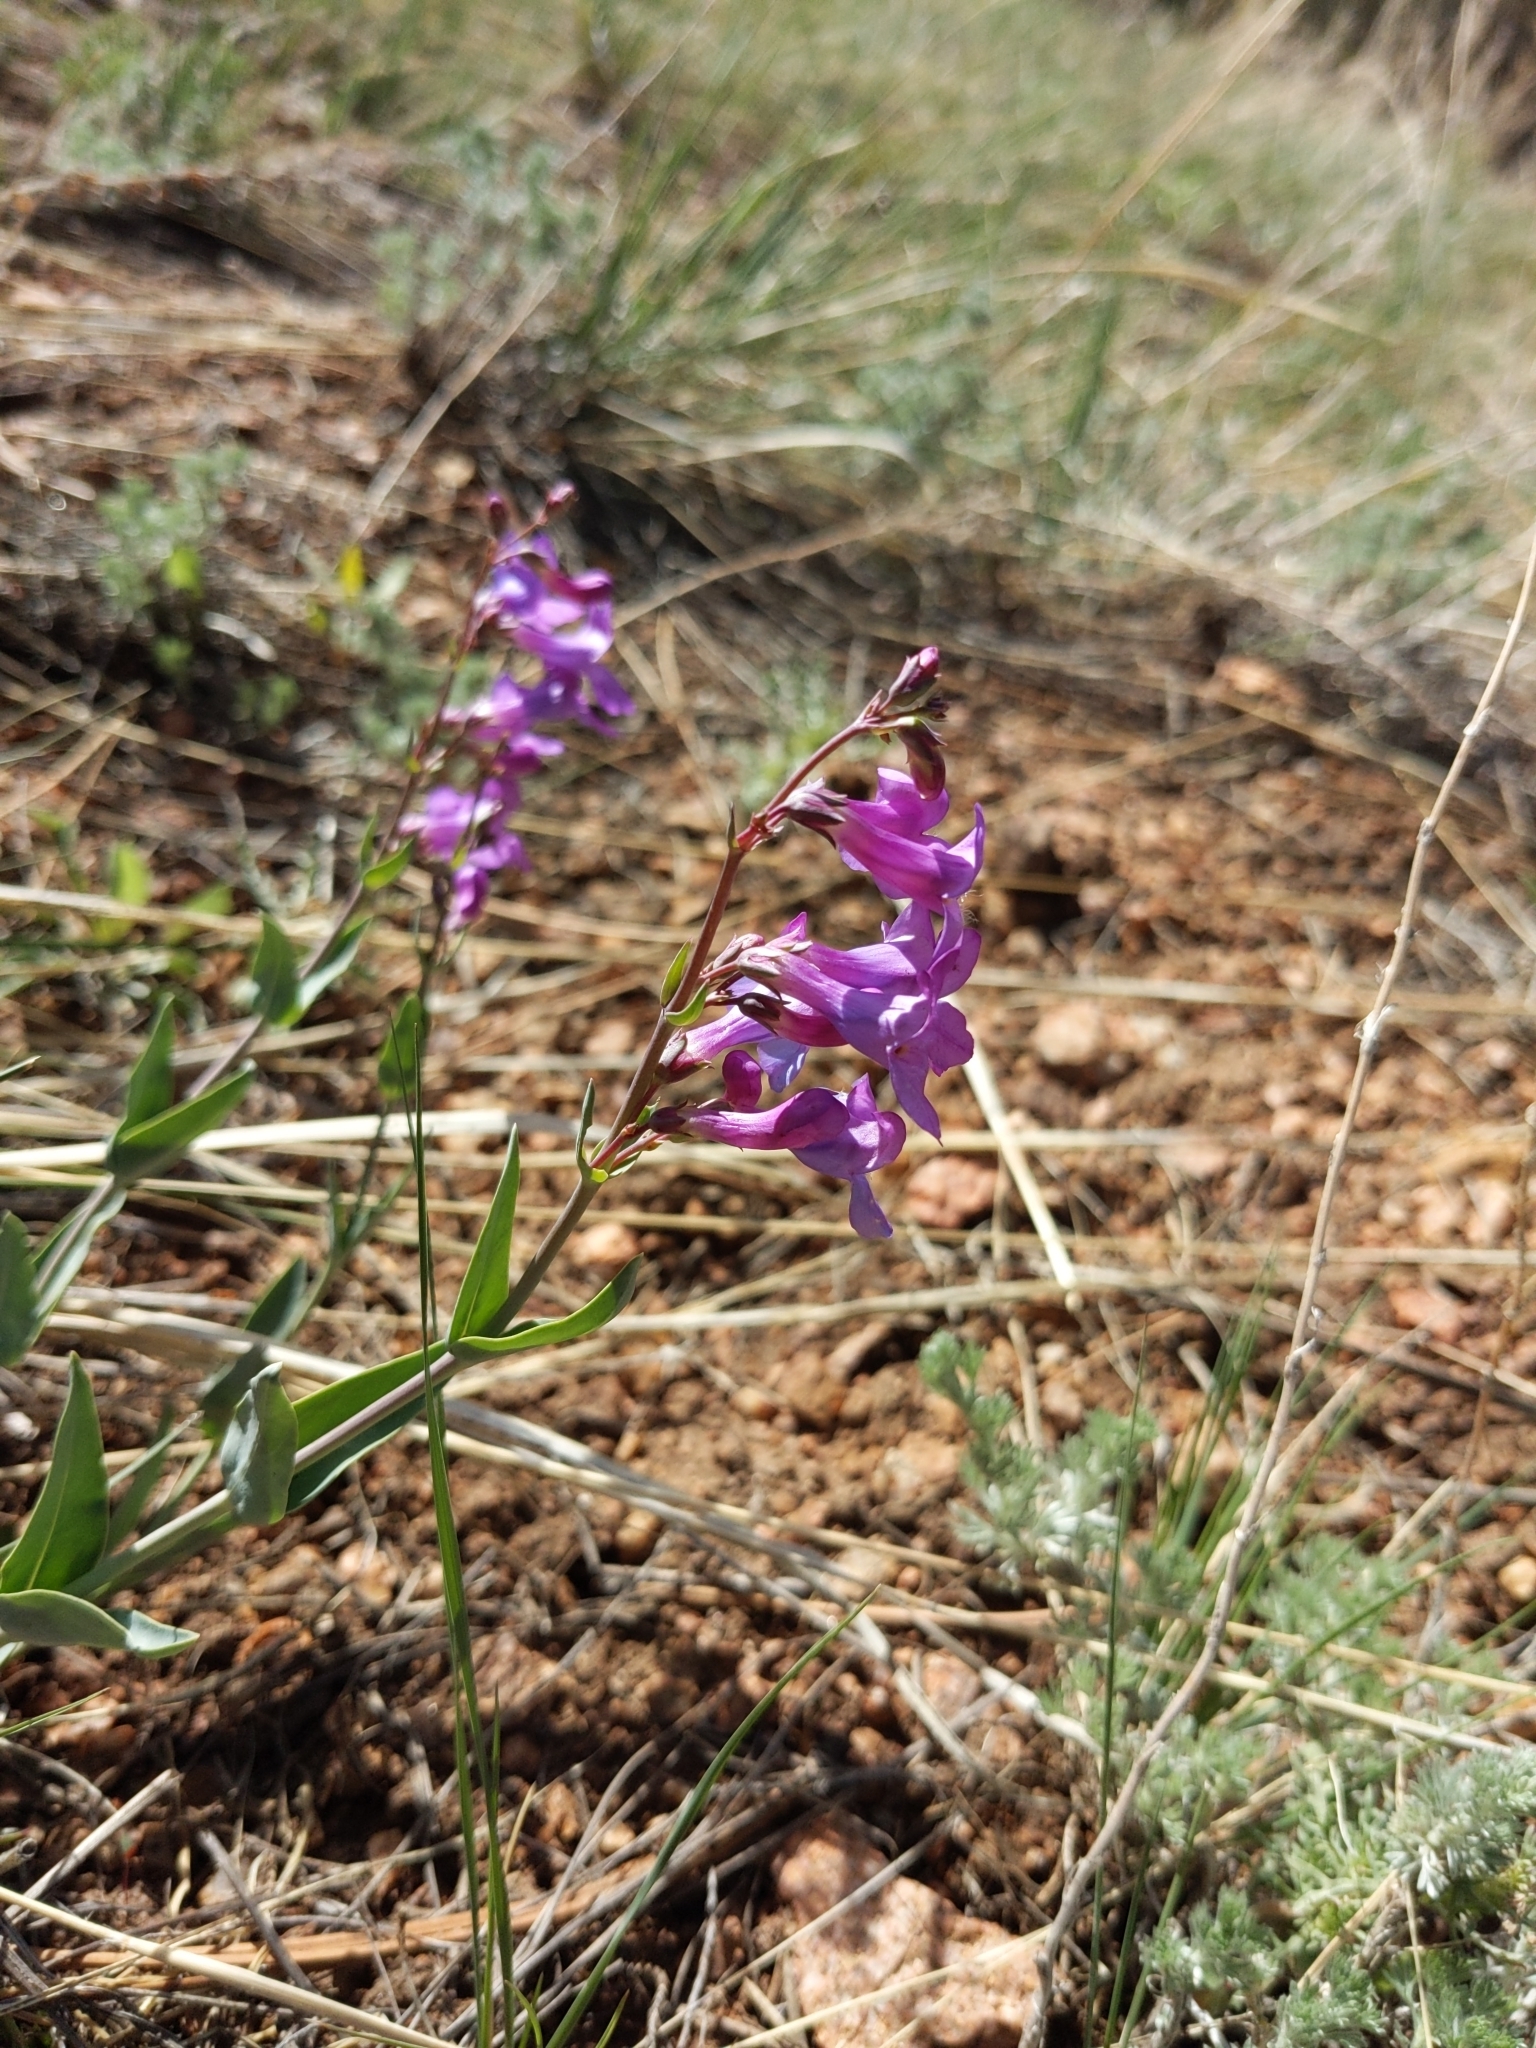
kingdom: Plantae
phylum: Tracheophyta
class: Magnoliopsida
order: Lamiales
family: Plantaginaceae
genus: Penstemon
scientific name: Penstemon secundiflorus
